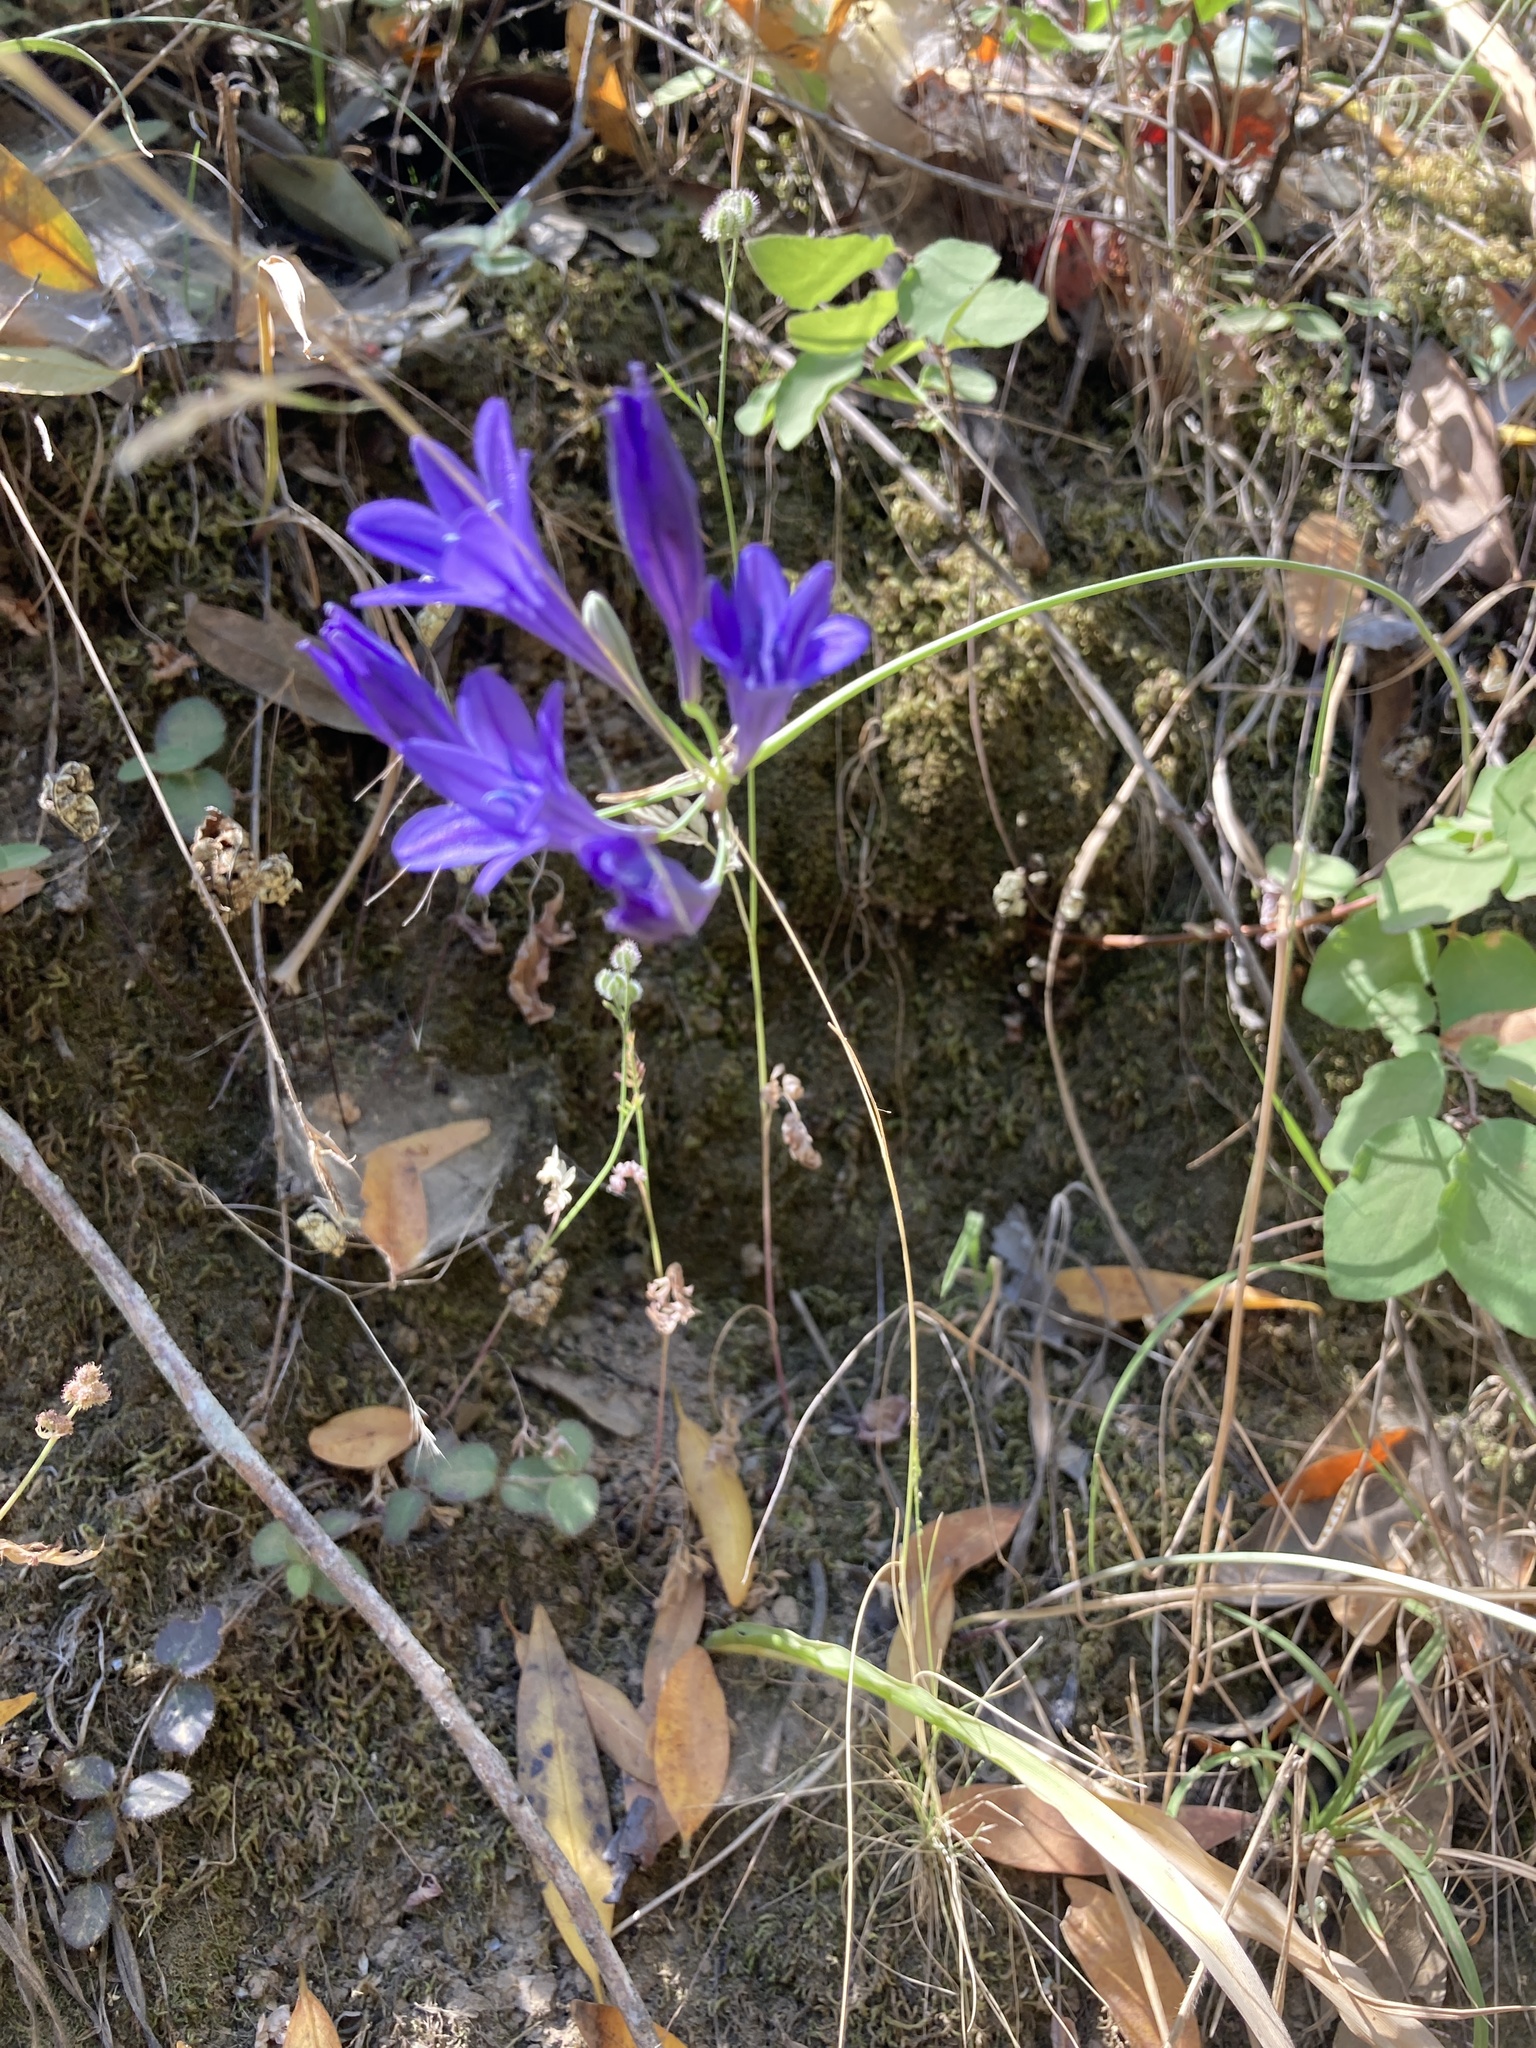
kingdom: Plantae
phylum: Tracheophyta
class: Liliopsida
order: Asparagales
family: Asparagaceae
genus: Triteleia
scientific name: Triteleia laxa
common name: Triplet-lily
